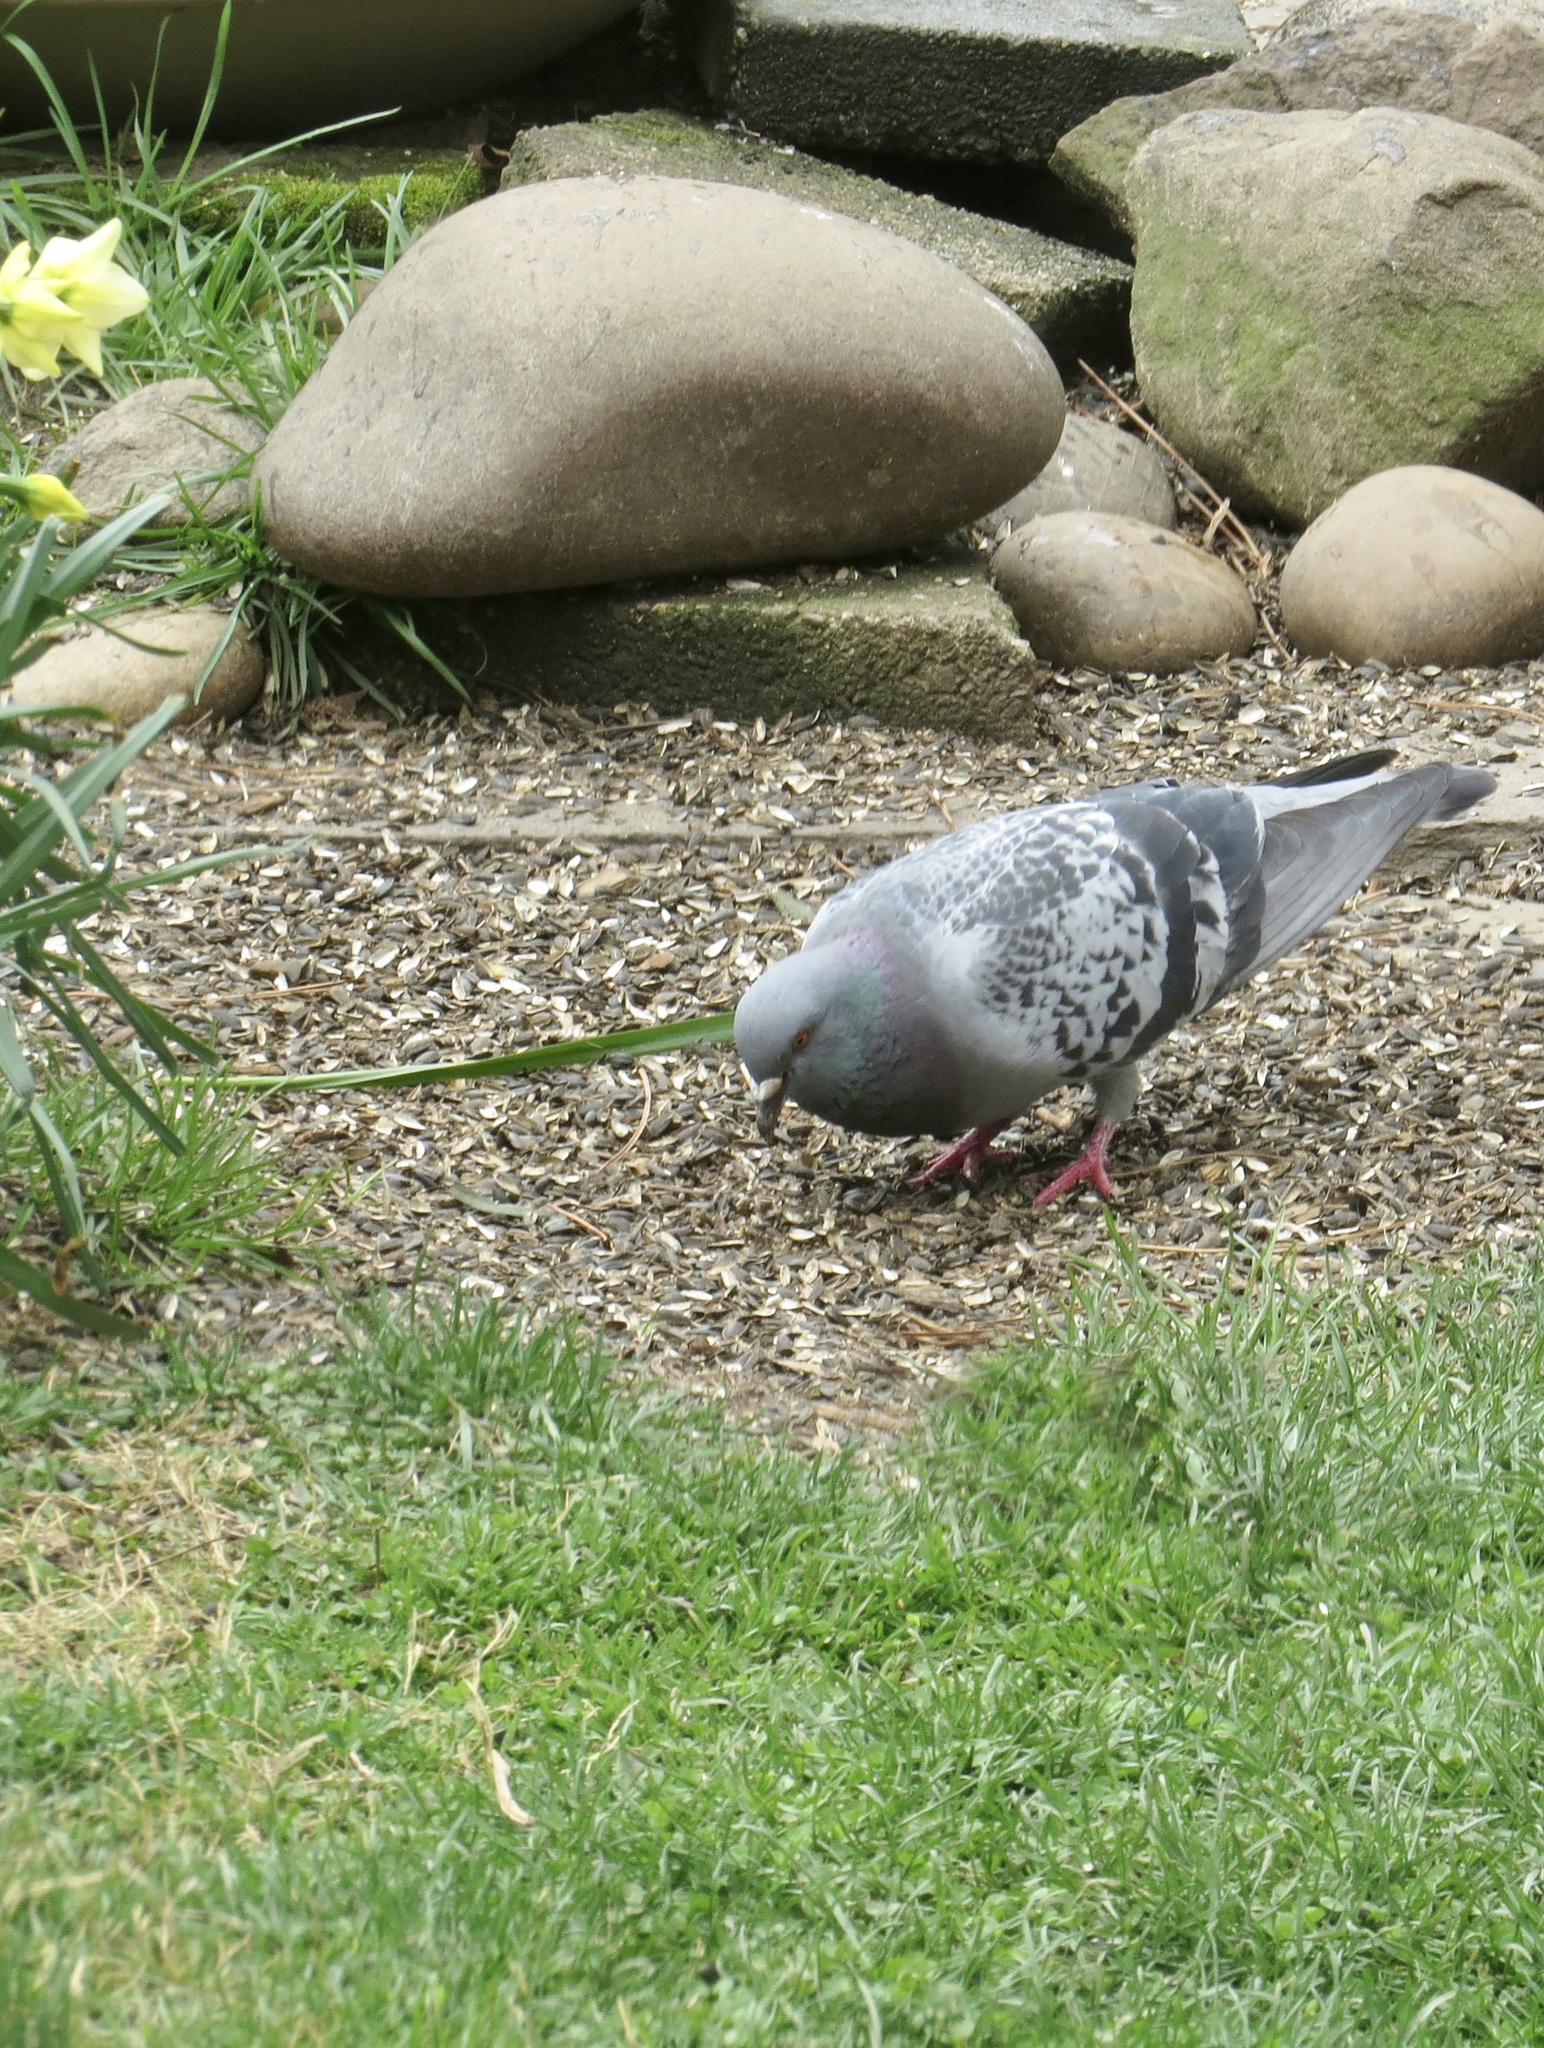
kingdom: Animalia
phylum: Chordata
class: Aves
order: Columbiformes
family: Columbidae
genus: Columba
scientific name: Columba livia
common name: Rock pigeon
